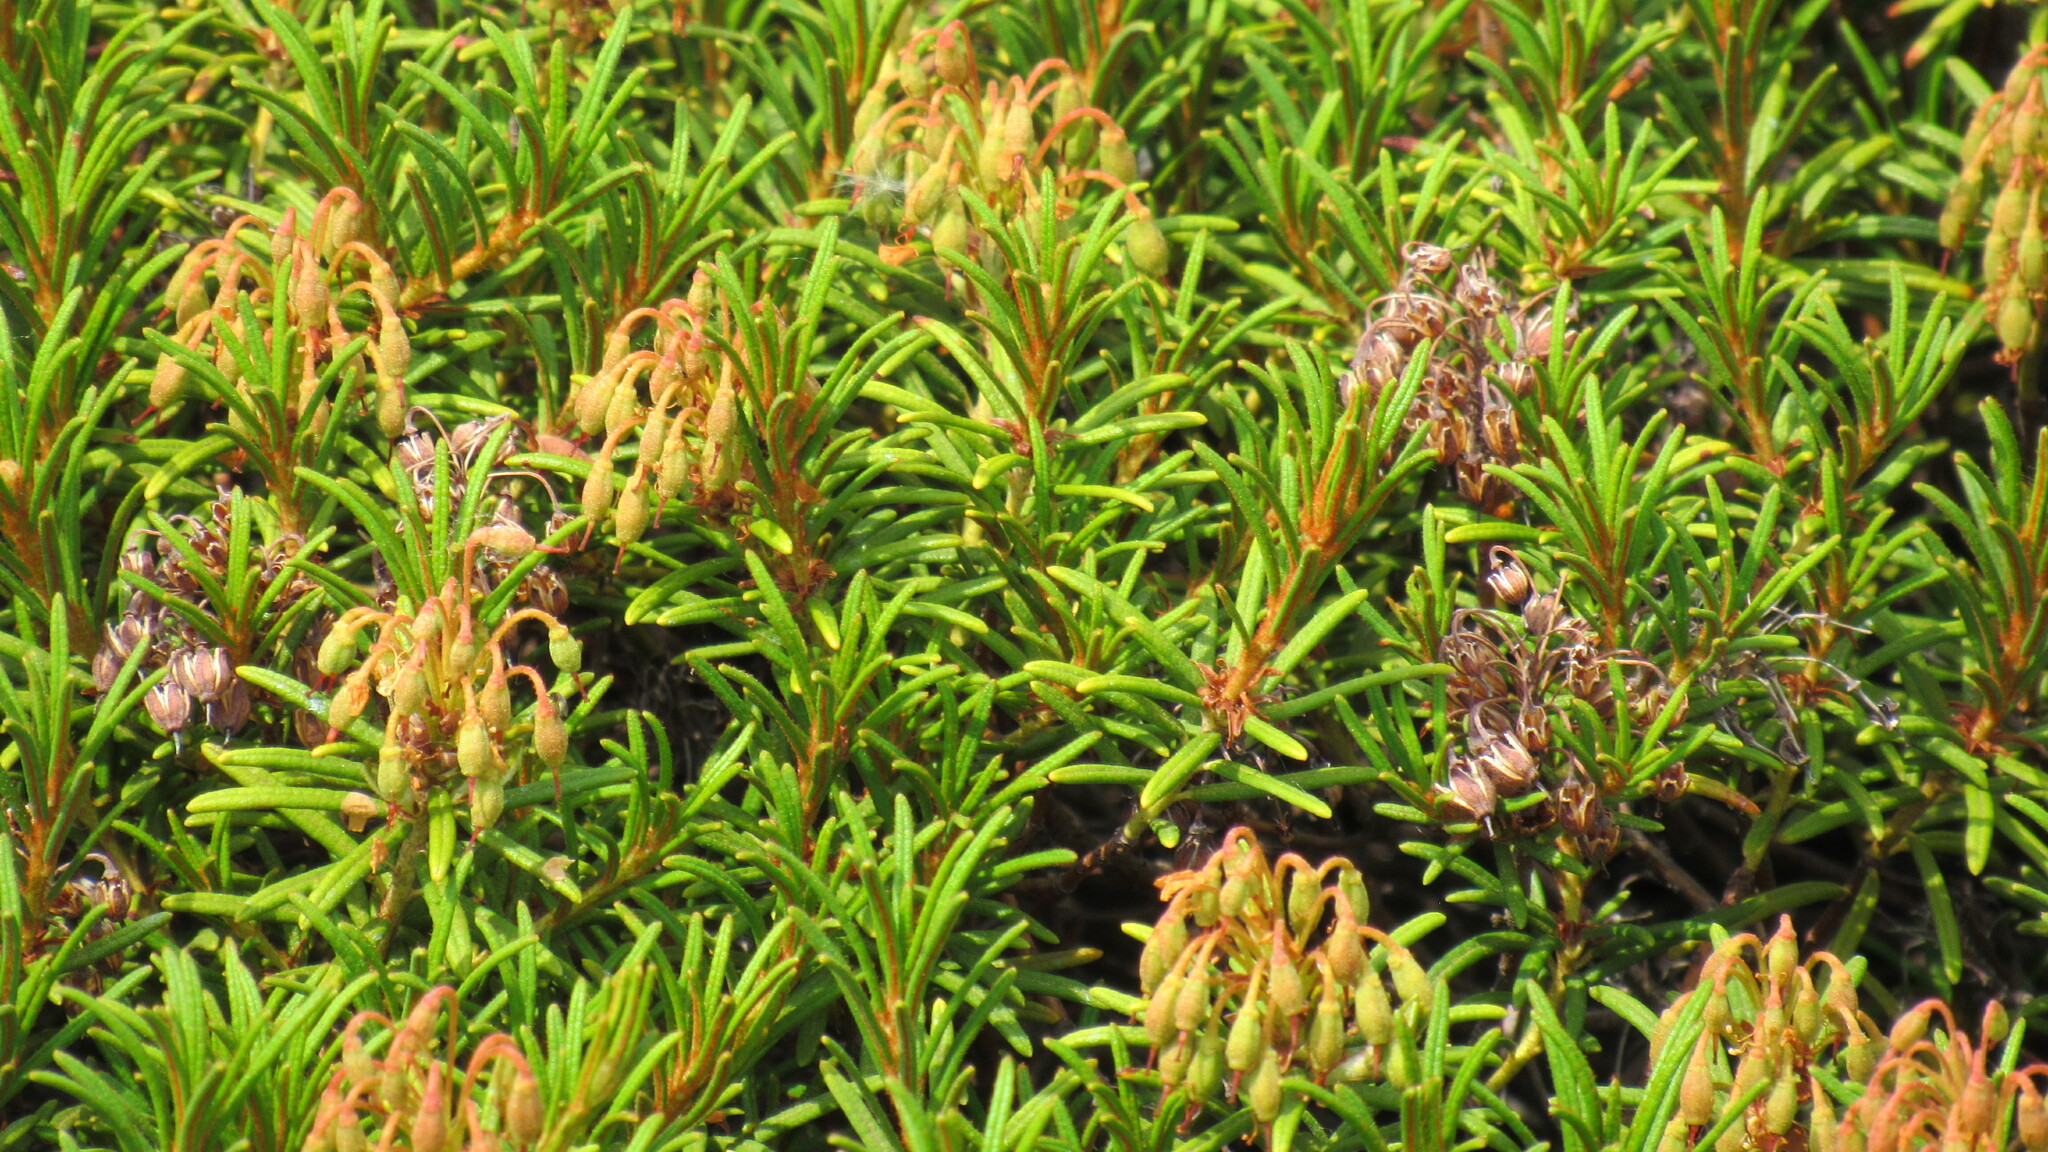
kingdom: Plantae
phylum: Tracheophyta
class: Magnoliopsida
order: Ericales
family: Ericaceae
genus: Rhododendron
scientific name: Rhododendron tomentosum
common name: Marsh labrador tea
